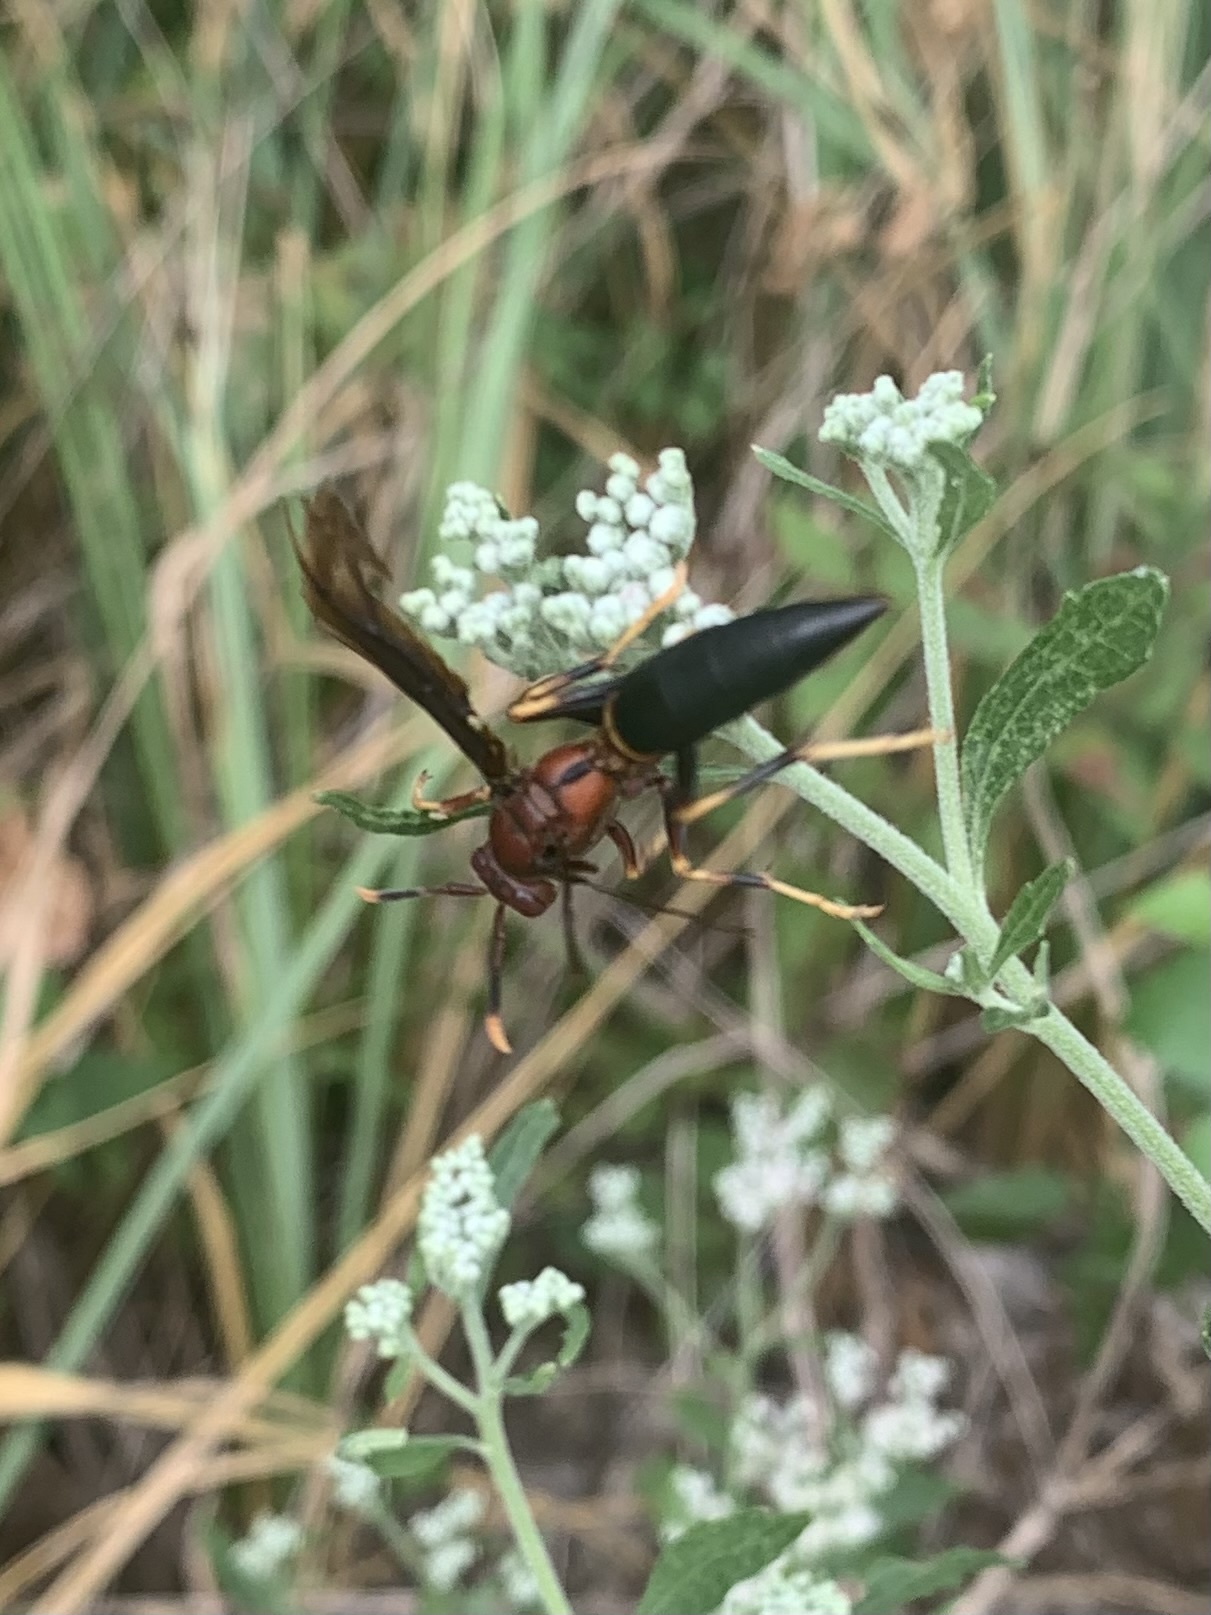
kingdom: Animalia
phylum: Arthropoda
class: Insecta
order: Hymenoptera
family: Eumenidae
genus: Polistes
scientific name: Polistes annularis
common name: Ringed paper wasp
